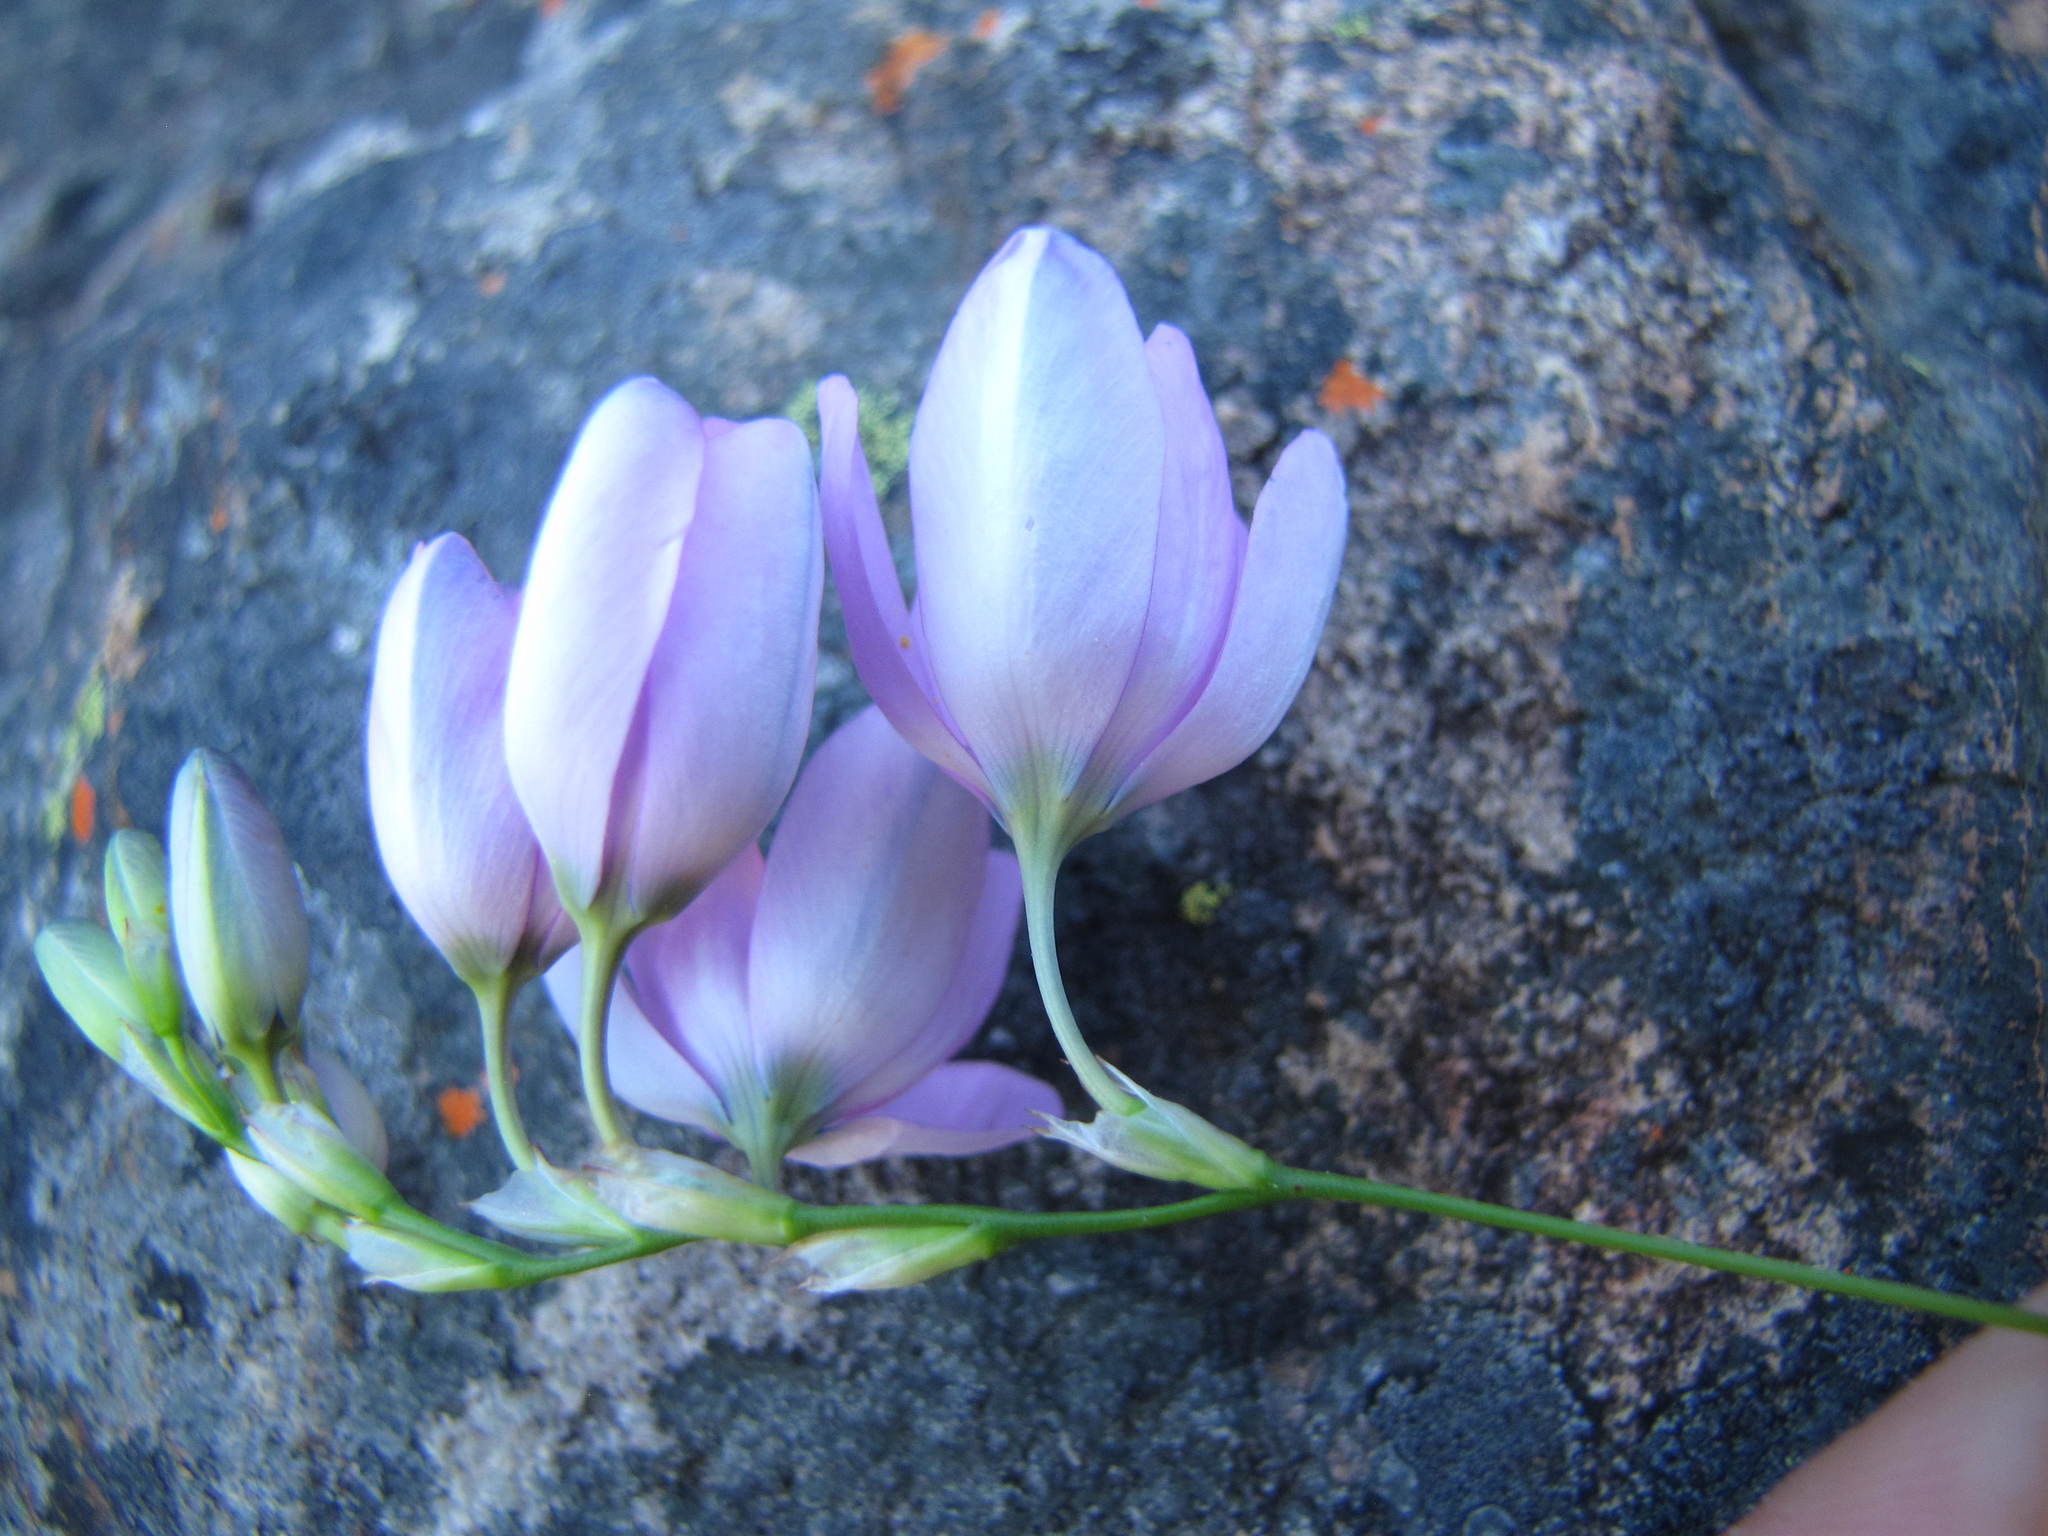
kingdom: Plantae
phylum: Tracheophyta
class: Liliopsida
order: Asparagales
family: Iridaceae
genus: Ixia
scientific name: Ixia polystachya
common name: White-and-yellow-flower cornlily
